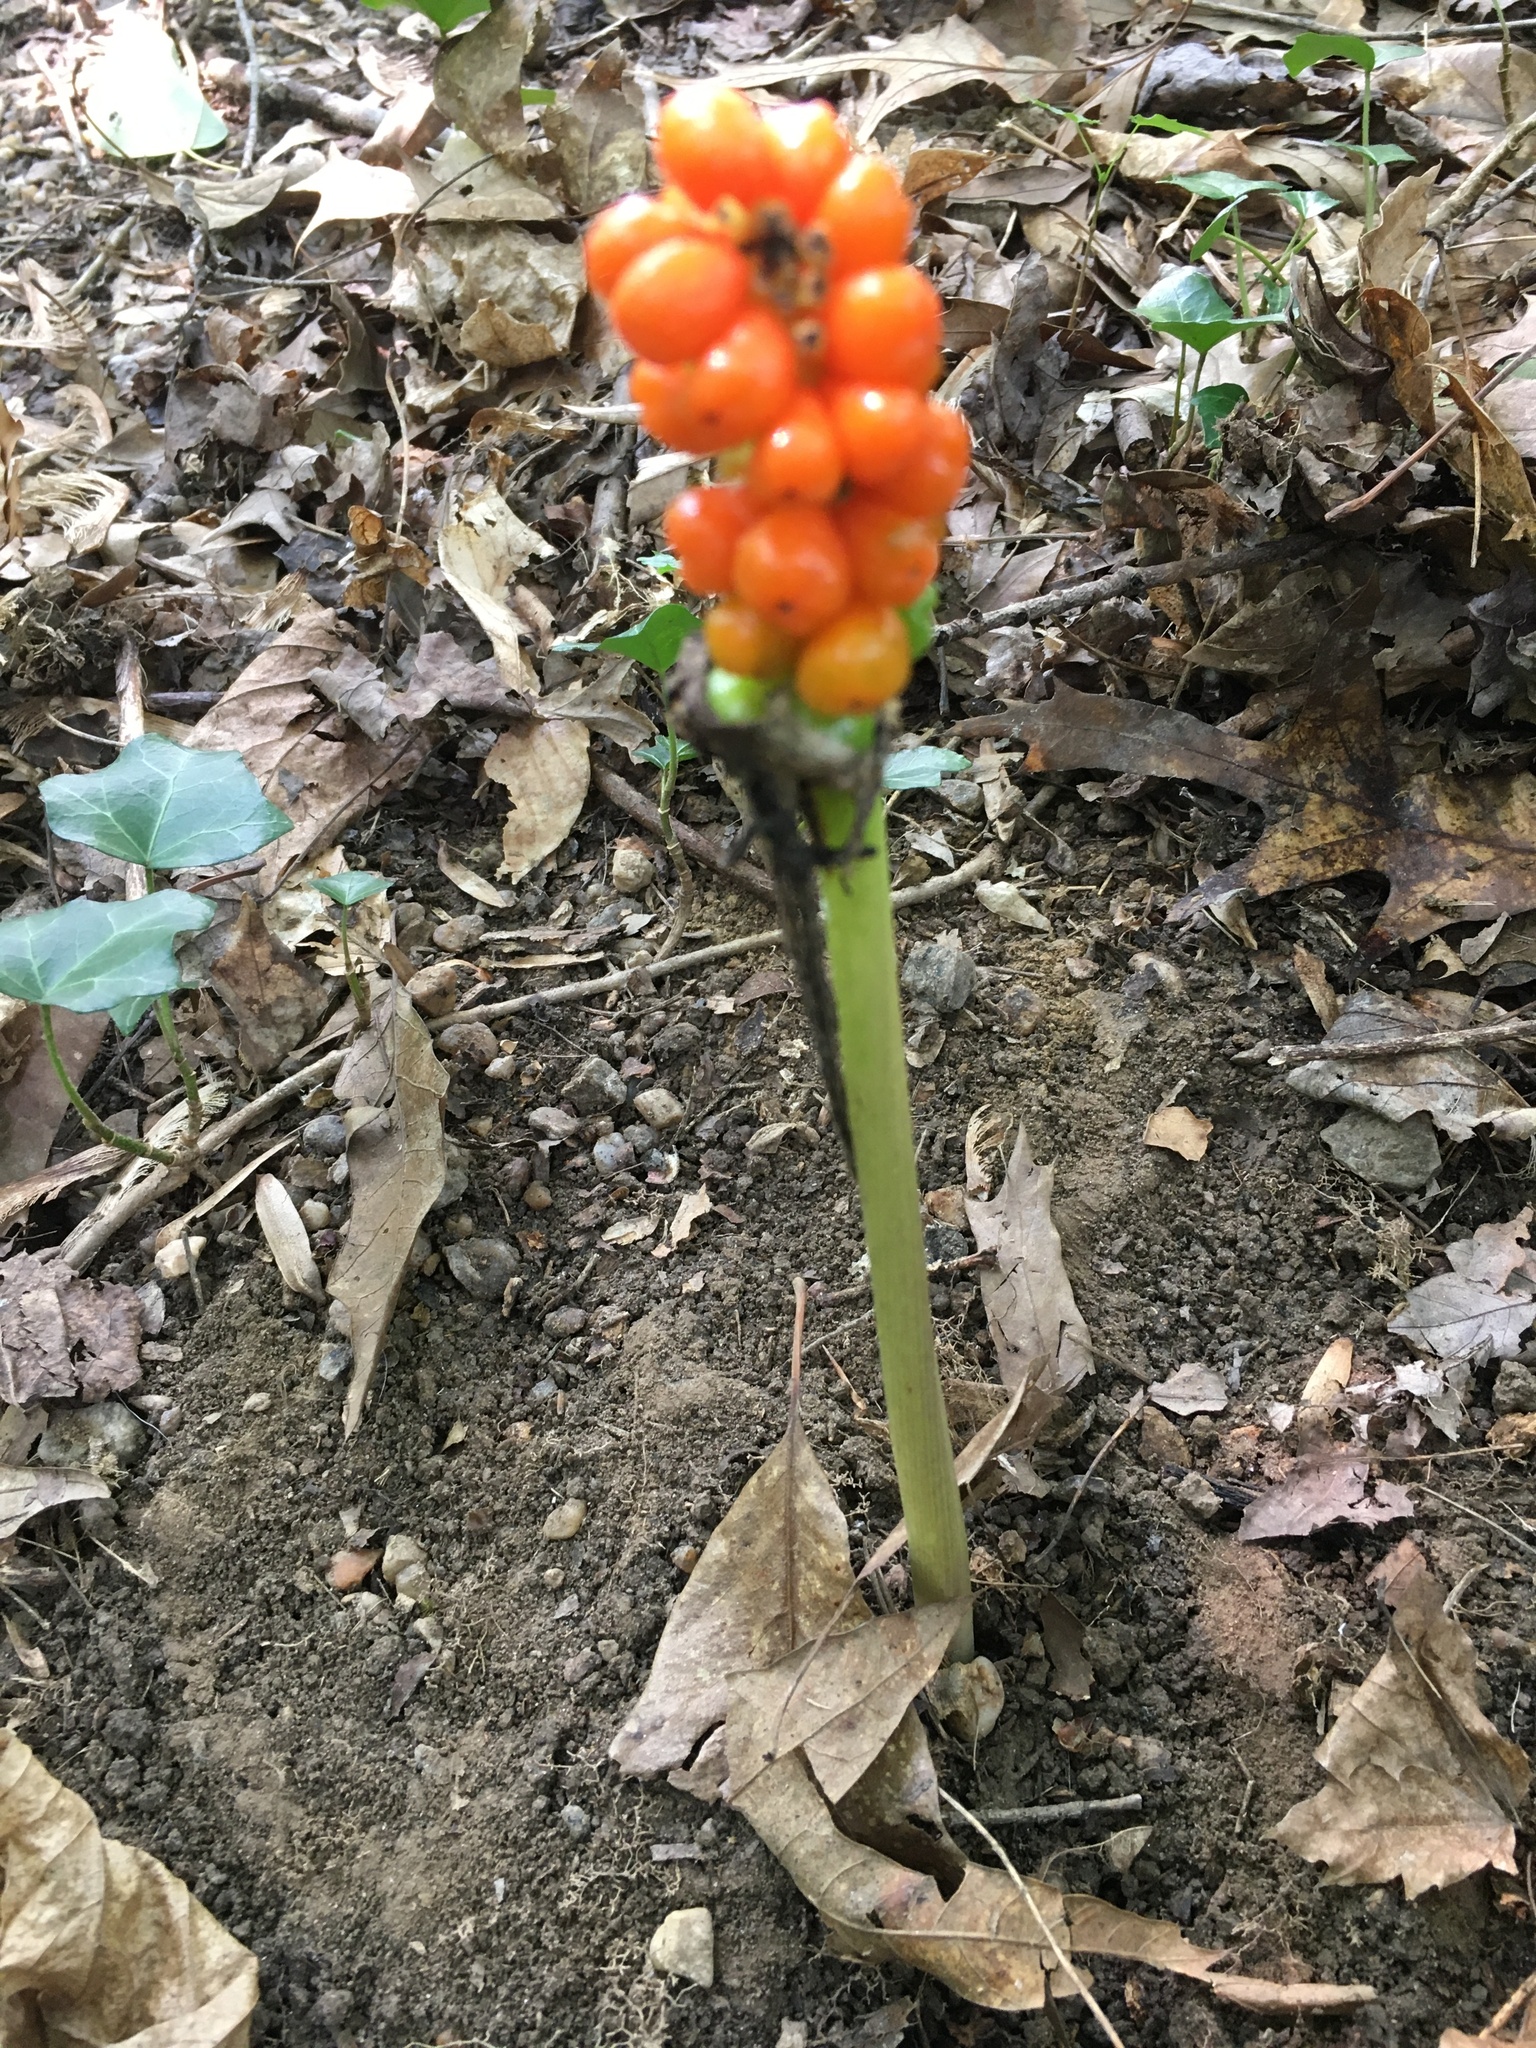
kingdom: Plantae
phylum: Tracheophyta
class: Liliopsida
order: Alismatales
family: Araceae
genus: Arum
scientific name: Arum italicum
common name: Italian lords-and-ladies
